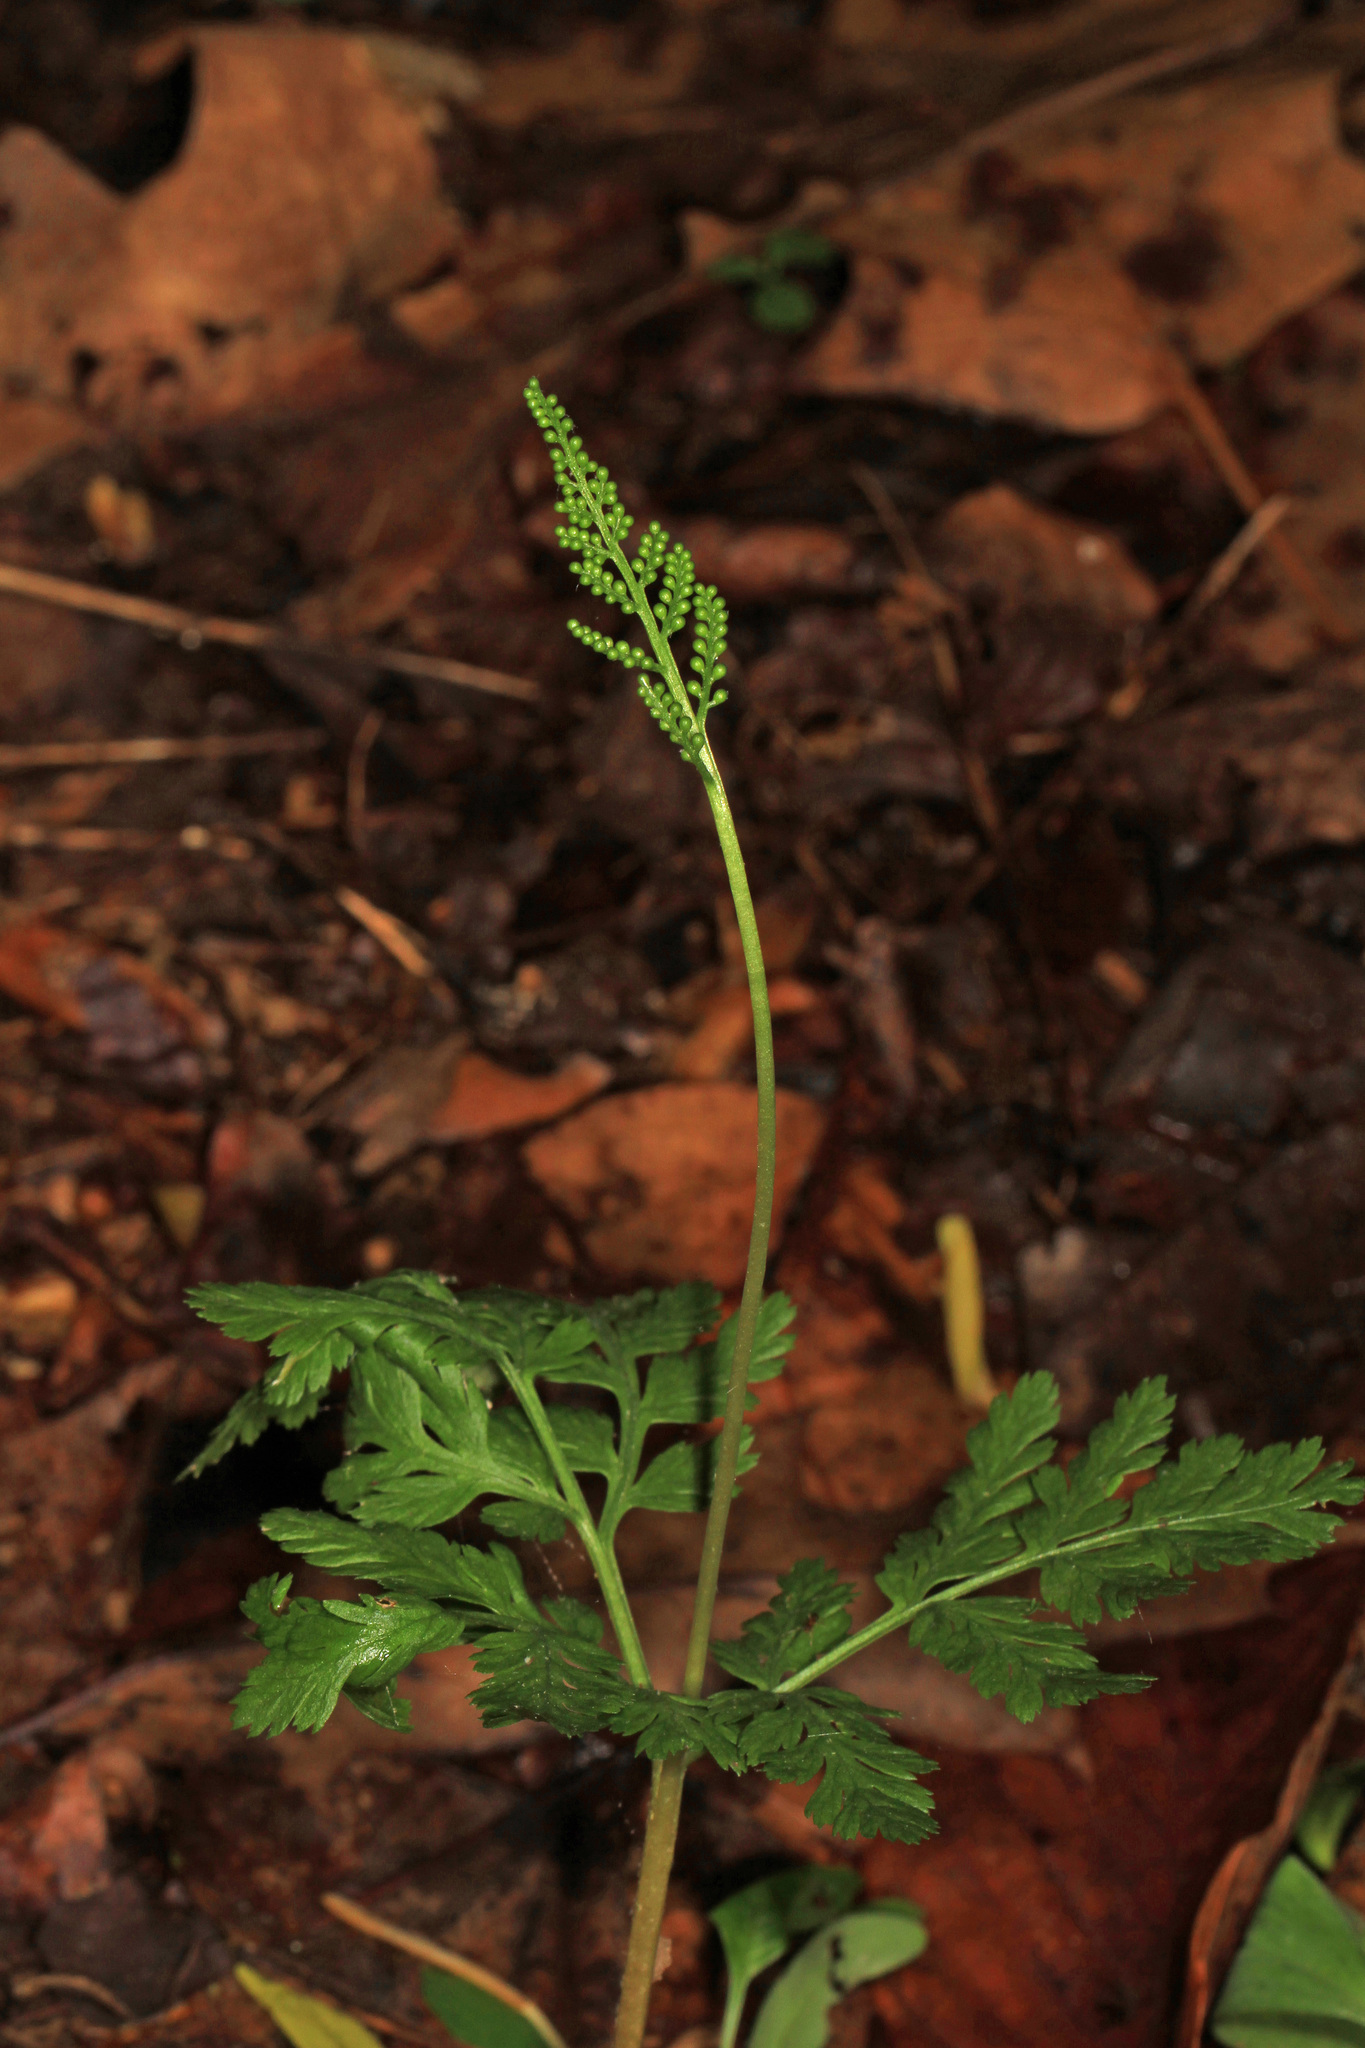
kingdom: Plantae
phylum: Tracheophyta
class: Polypodiopsida
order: Ophioglossales
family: Ophioglossaceae
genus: Botrypus
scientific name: Botrypus virginianus
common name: Common grapefern
